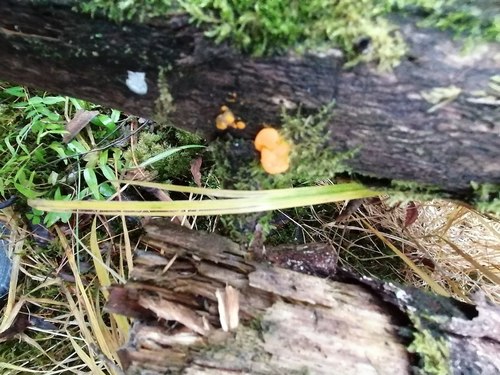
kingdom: Fungi
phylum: Basidiomycota
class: Dacrymycetes
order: Dacrymycetales
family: Dacrymycetaceae
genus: Dacrymyces
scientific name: Dacrymyces chrysospermus
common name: Orange jelly spot
